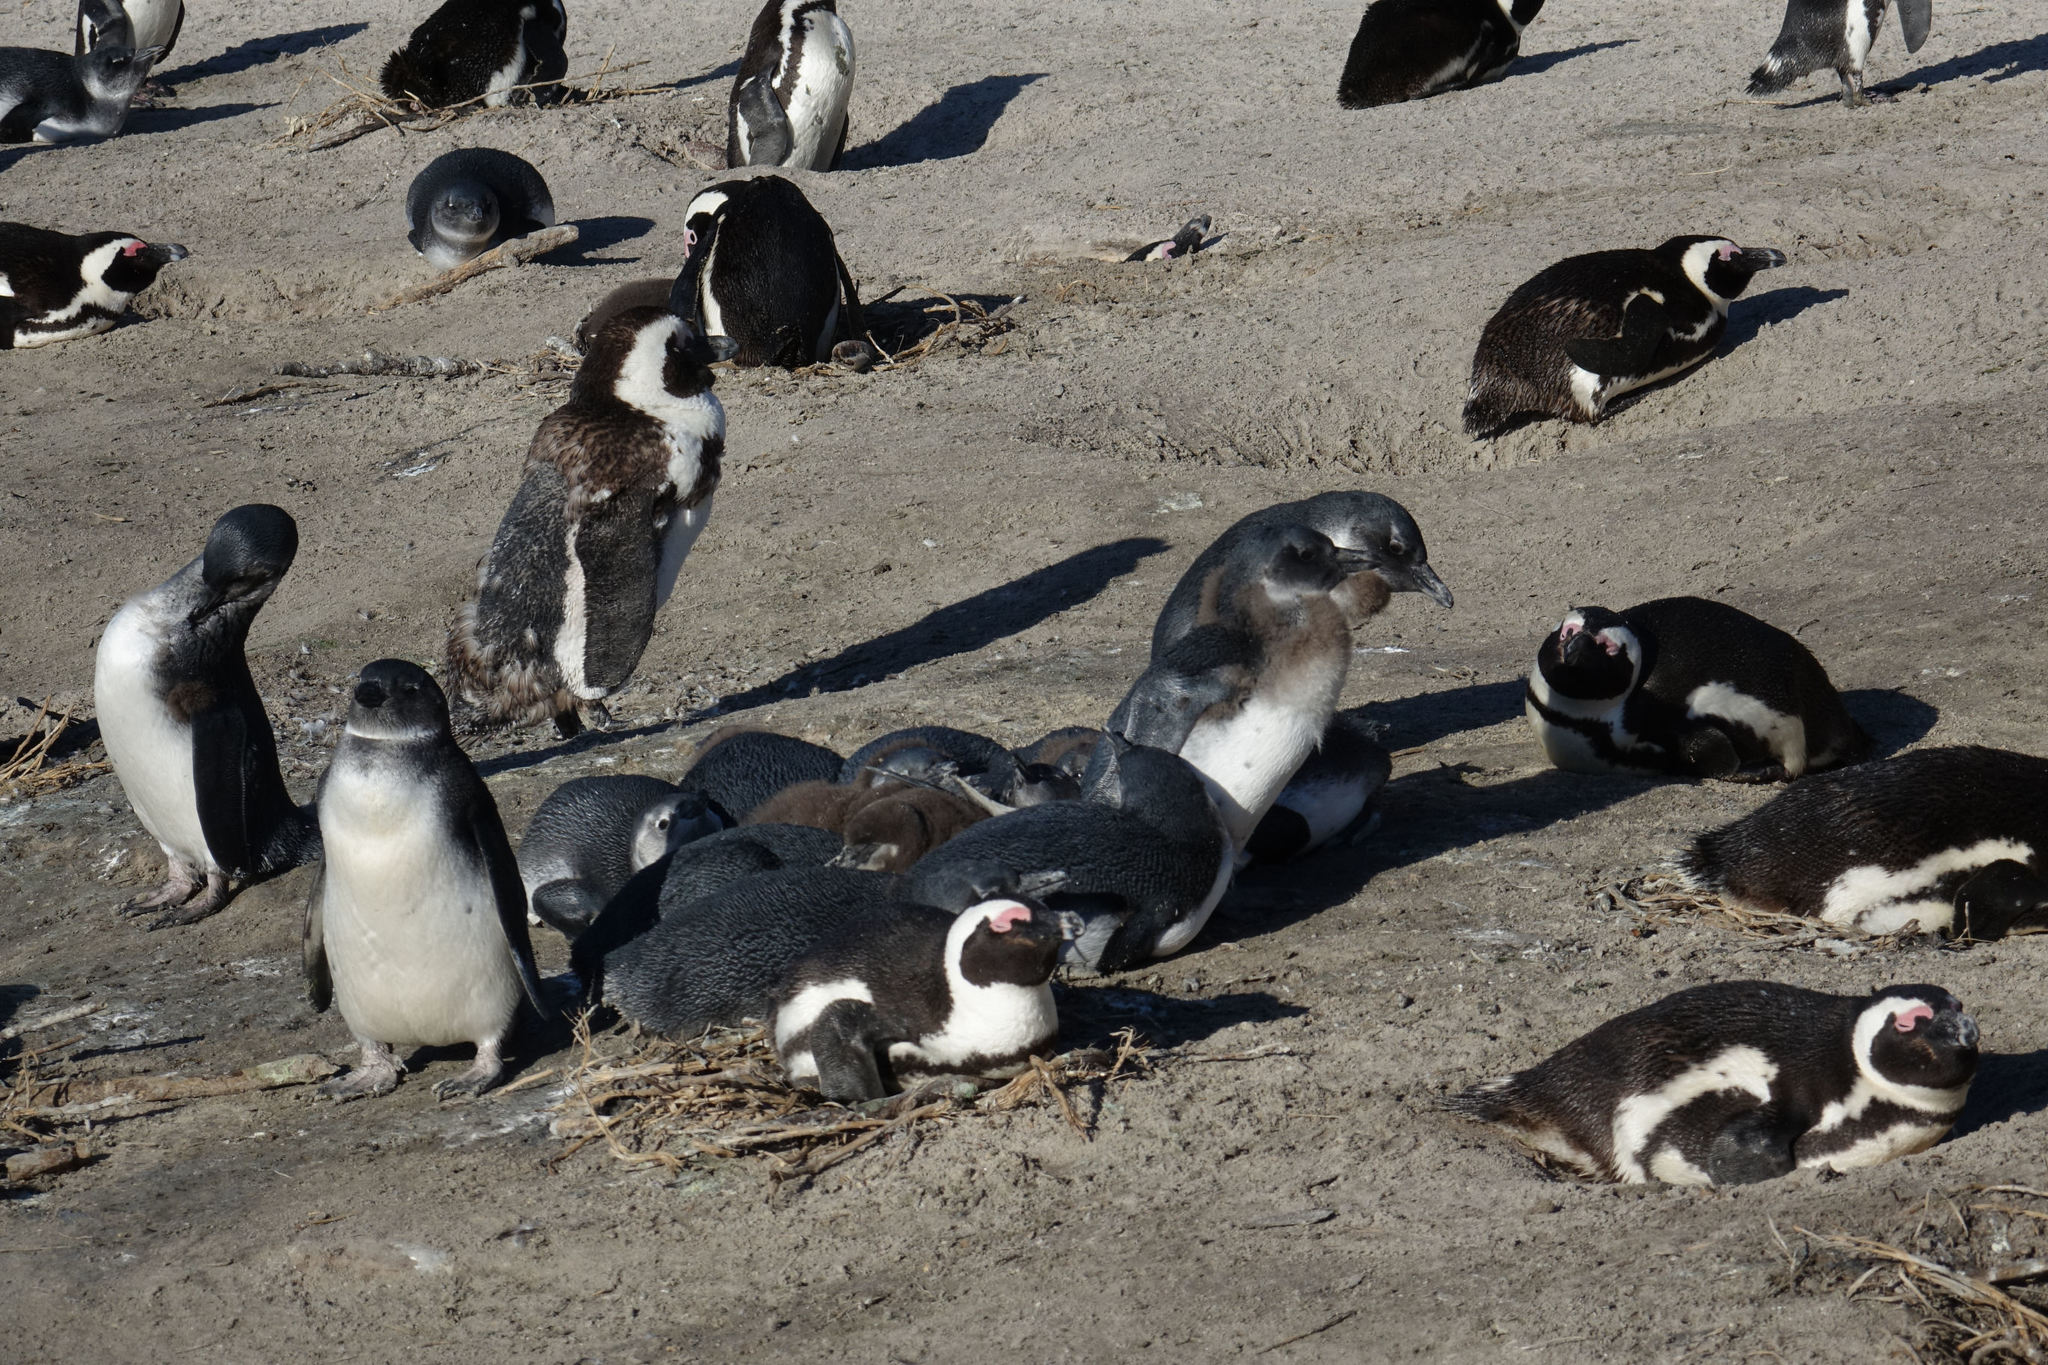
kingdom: Animalia
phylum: Chordata
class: Aves
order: Sphenisciformes
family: Spheniscidae
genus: Spheniscus
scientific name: Spheniscus demersus
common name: African penguin
